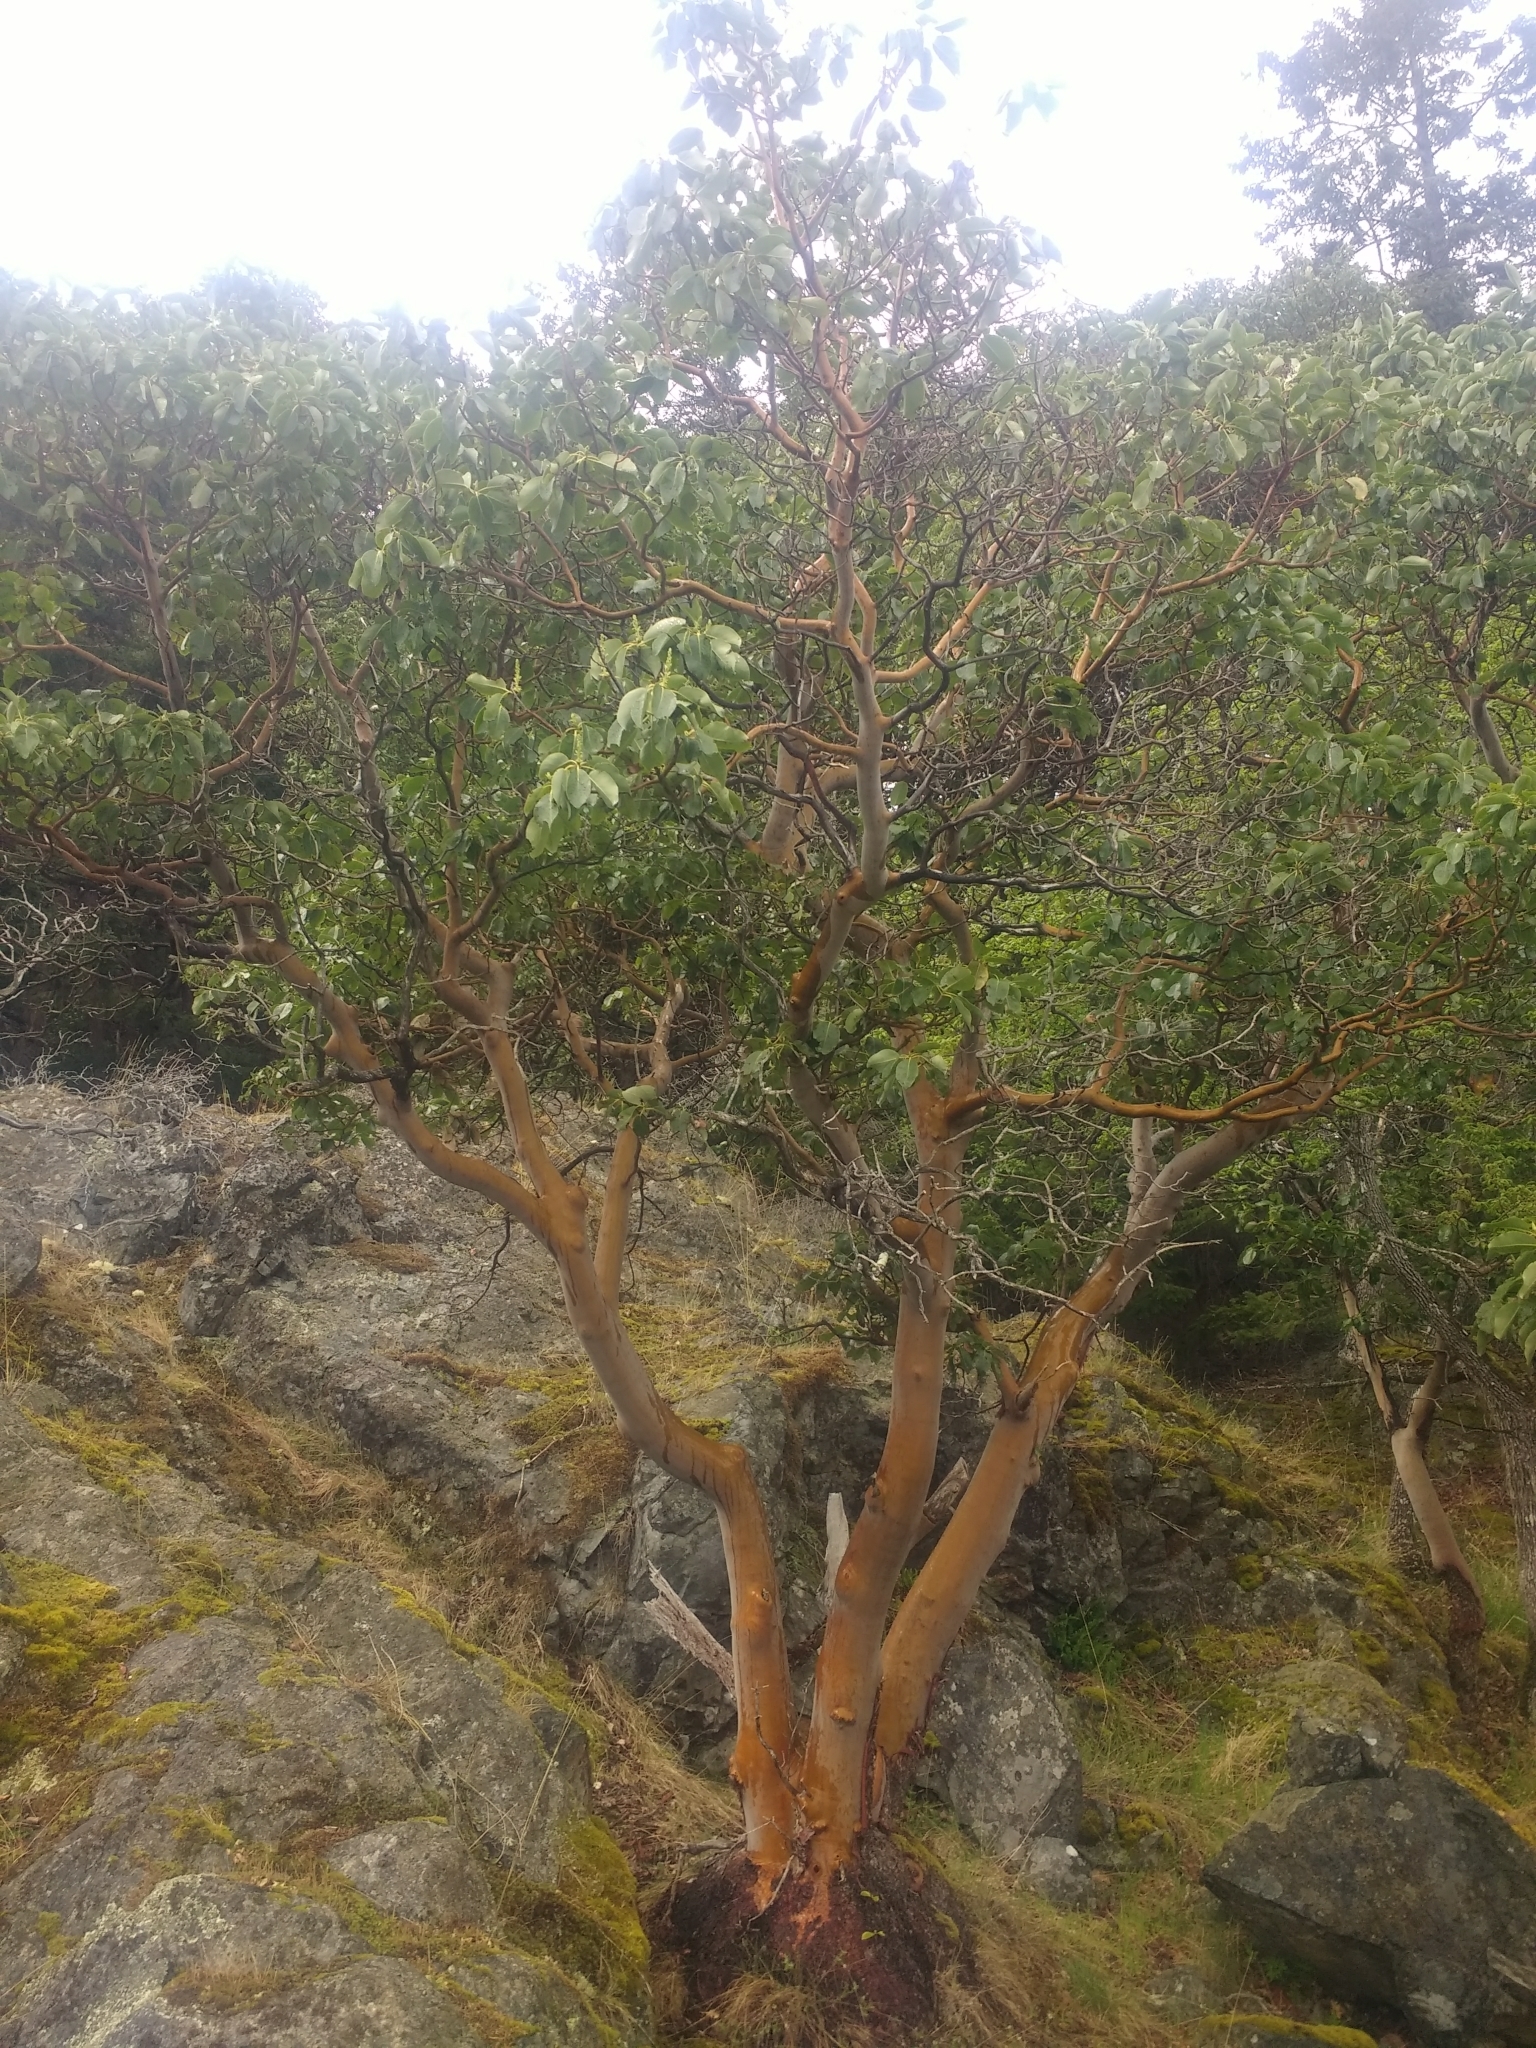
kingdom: Plantae
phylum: Tracheophyta
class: Magnoliopsida
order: Ericales
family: Ericaceae
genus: Arbutus
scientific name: Arbutus menziesii
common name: Pacific madrone
